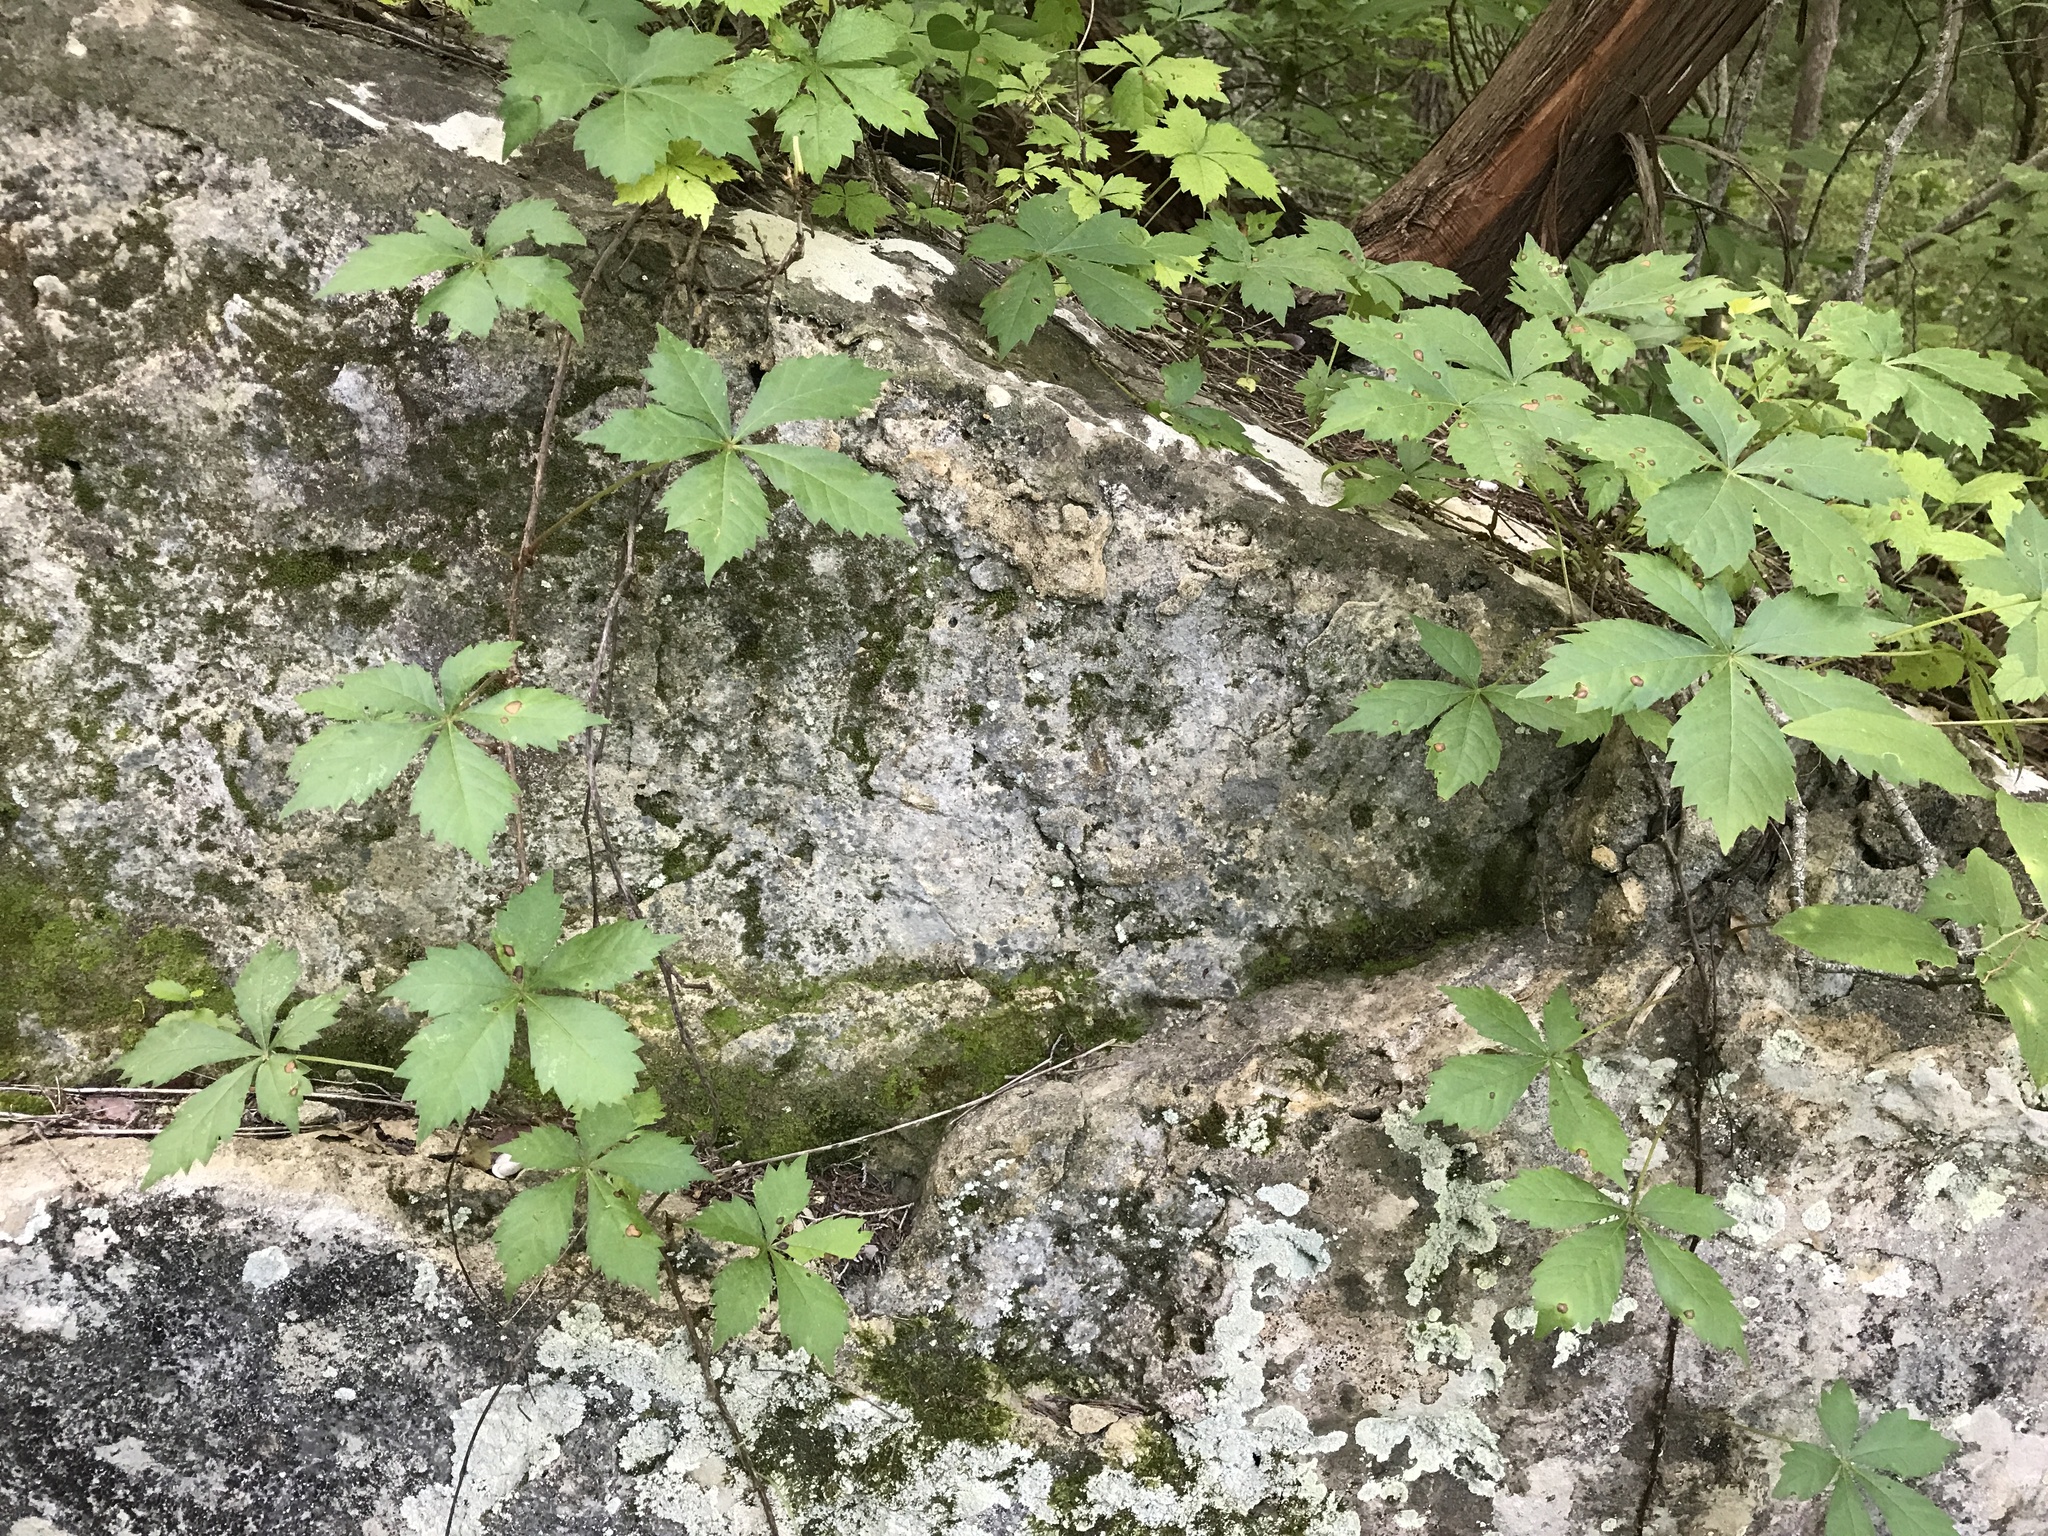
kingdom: Plantae
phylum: Tracheophyta
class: Magnoliopsida
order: Vitales
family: Vitaceae
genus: Parthenocissus
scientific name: Parthenocissus quinquefolia
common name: Virginia-creeper
